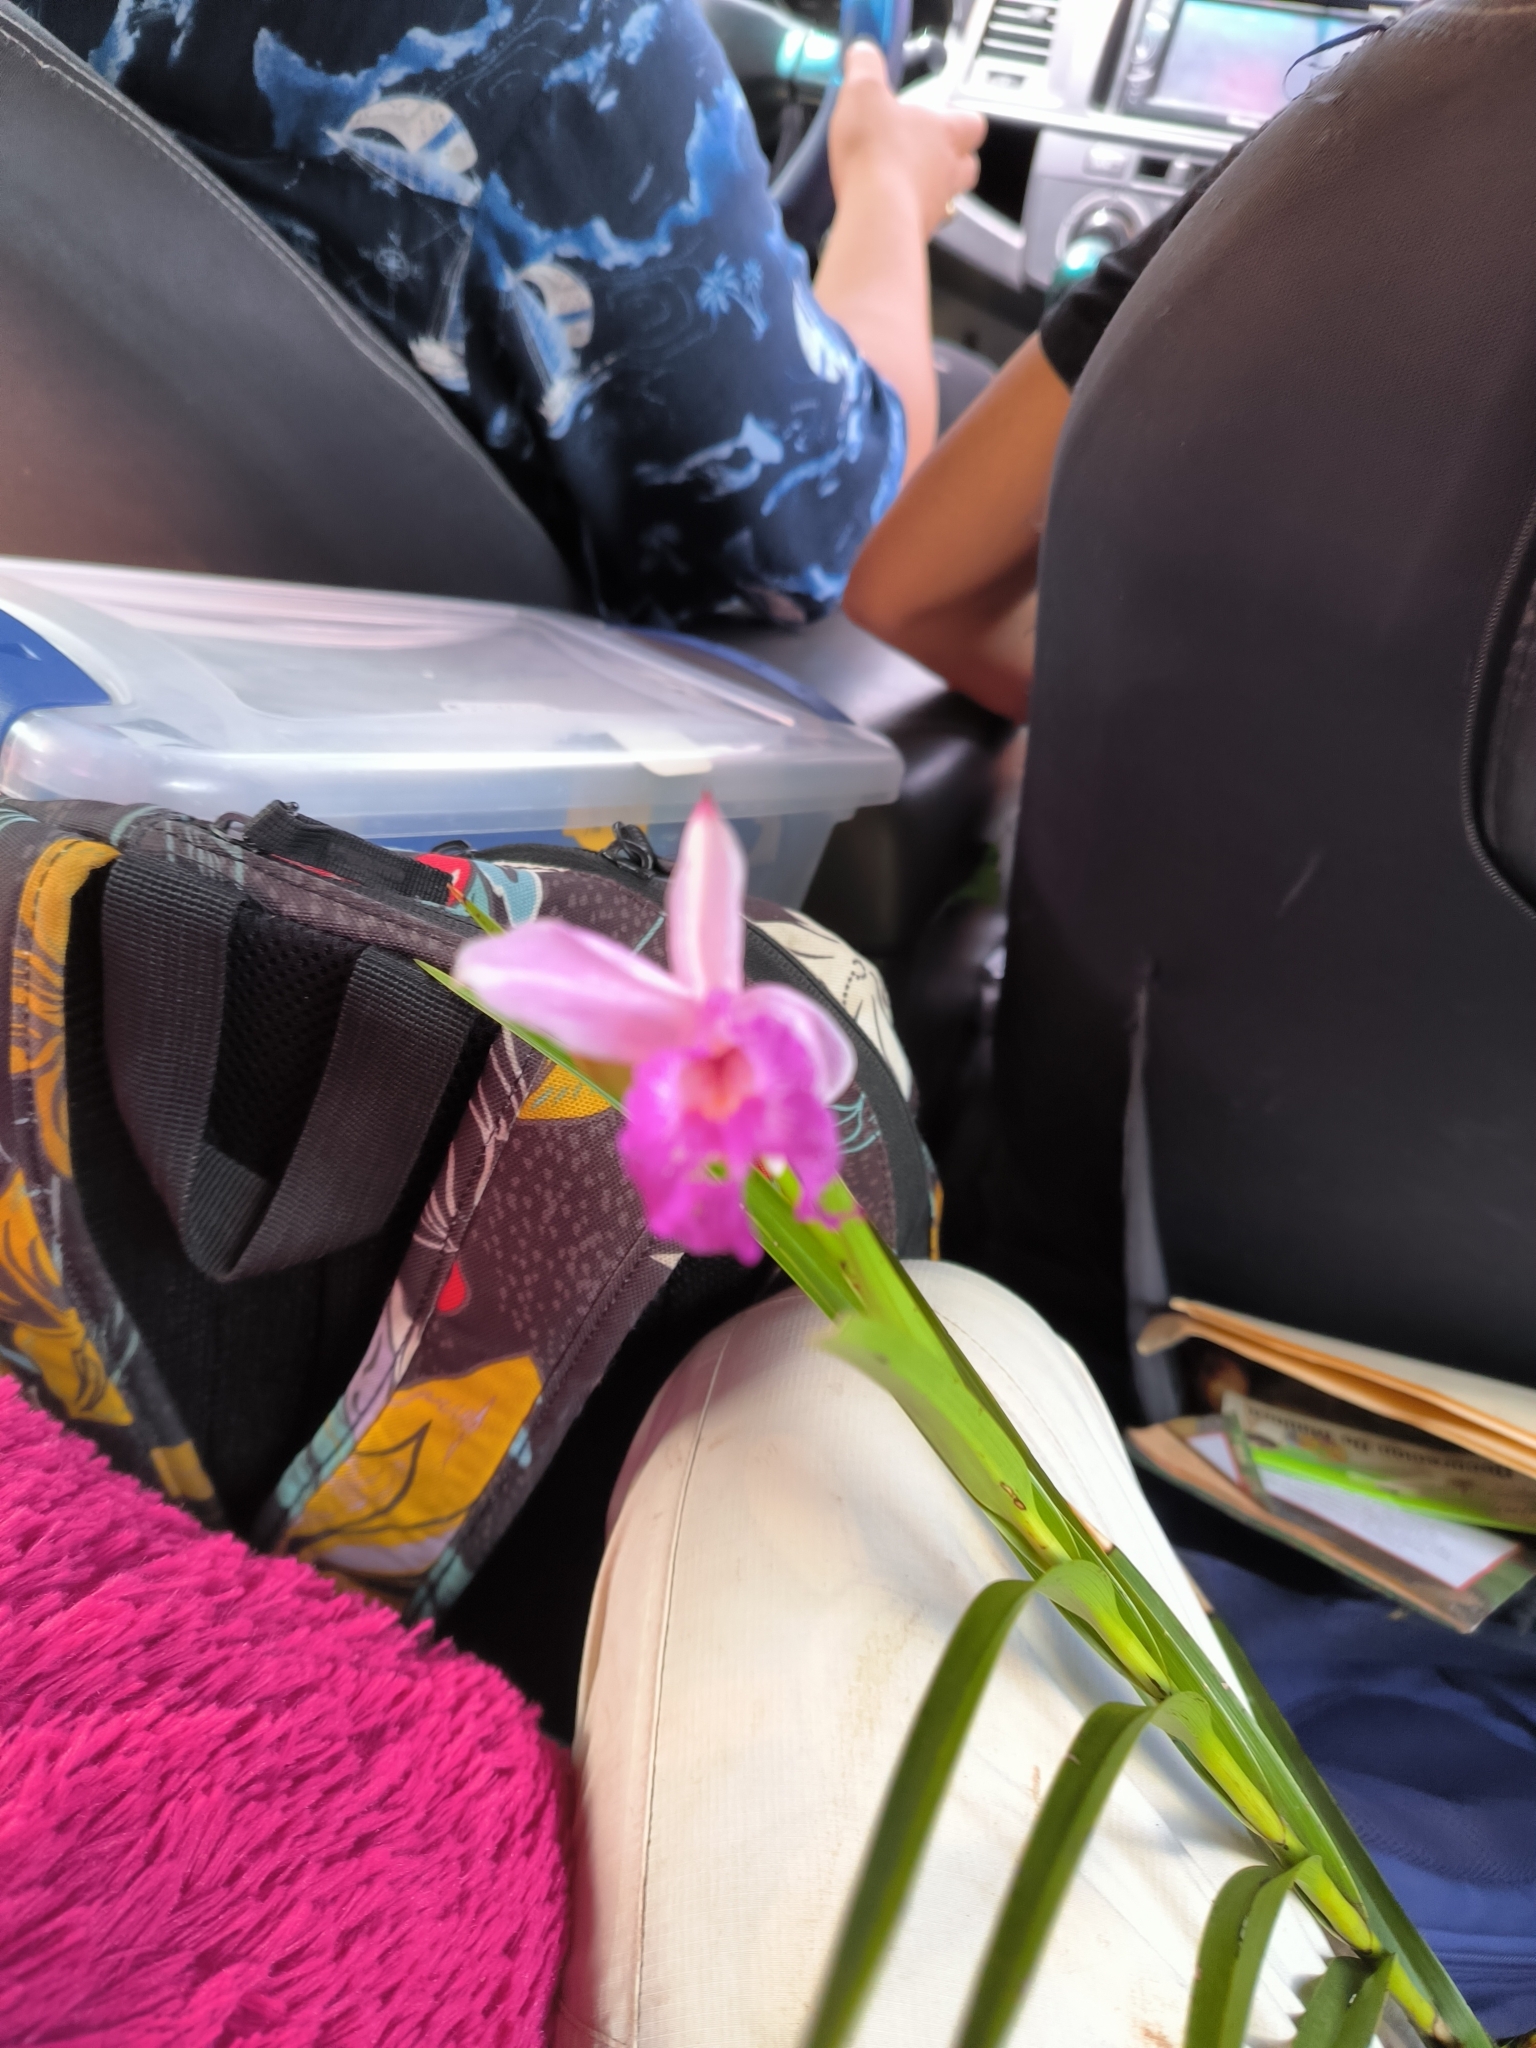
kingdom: Plantae
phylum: Tracheophyta
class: Liliopsida
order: Asparagales
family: Orchidaceae
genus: Arundina
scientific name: Arundina graminifolia
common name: Bamboo orchid
